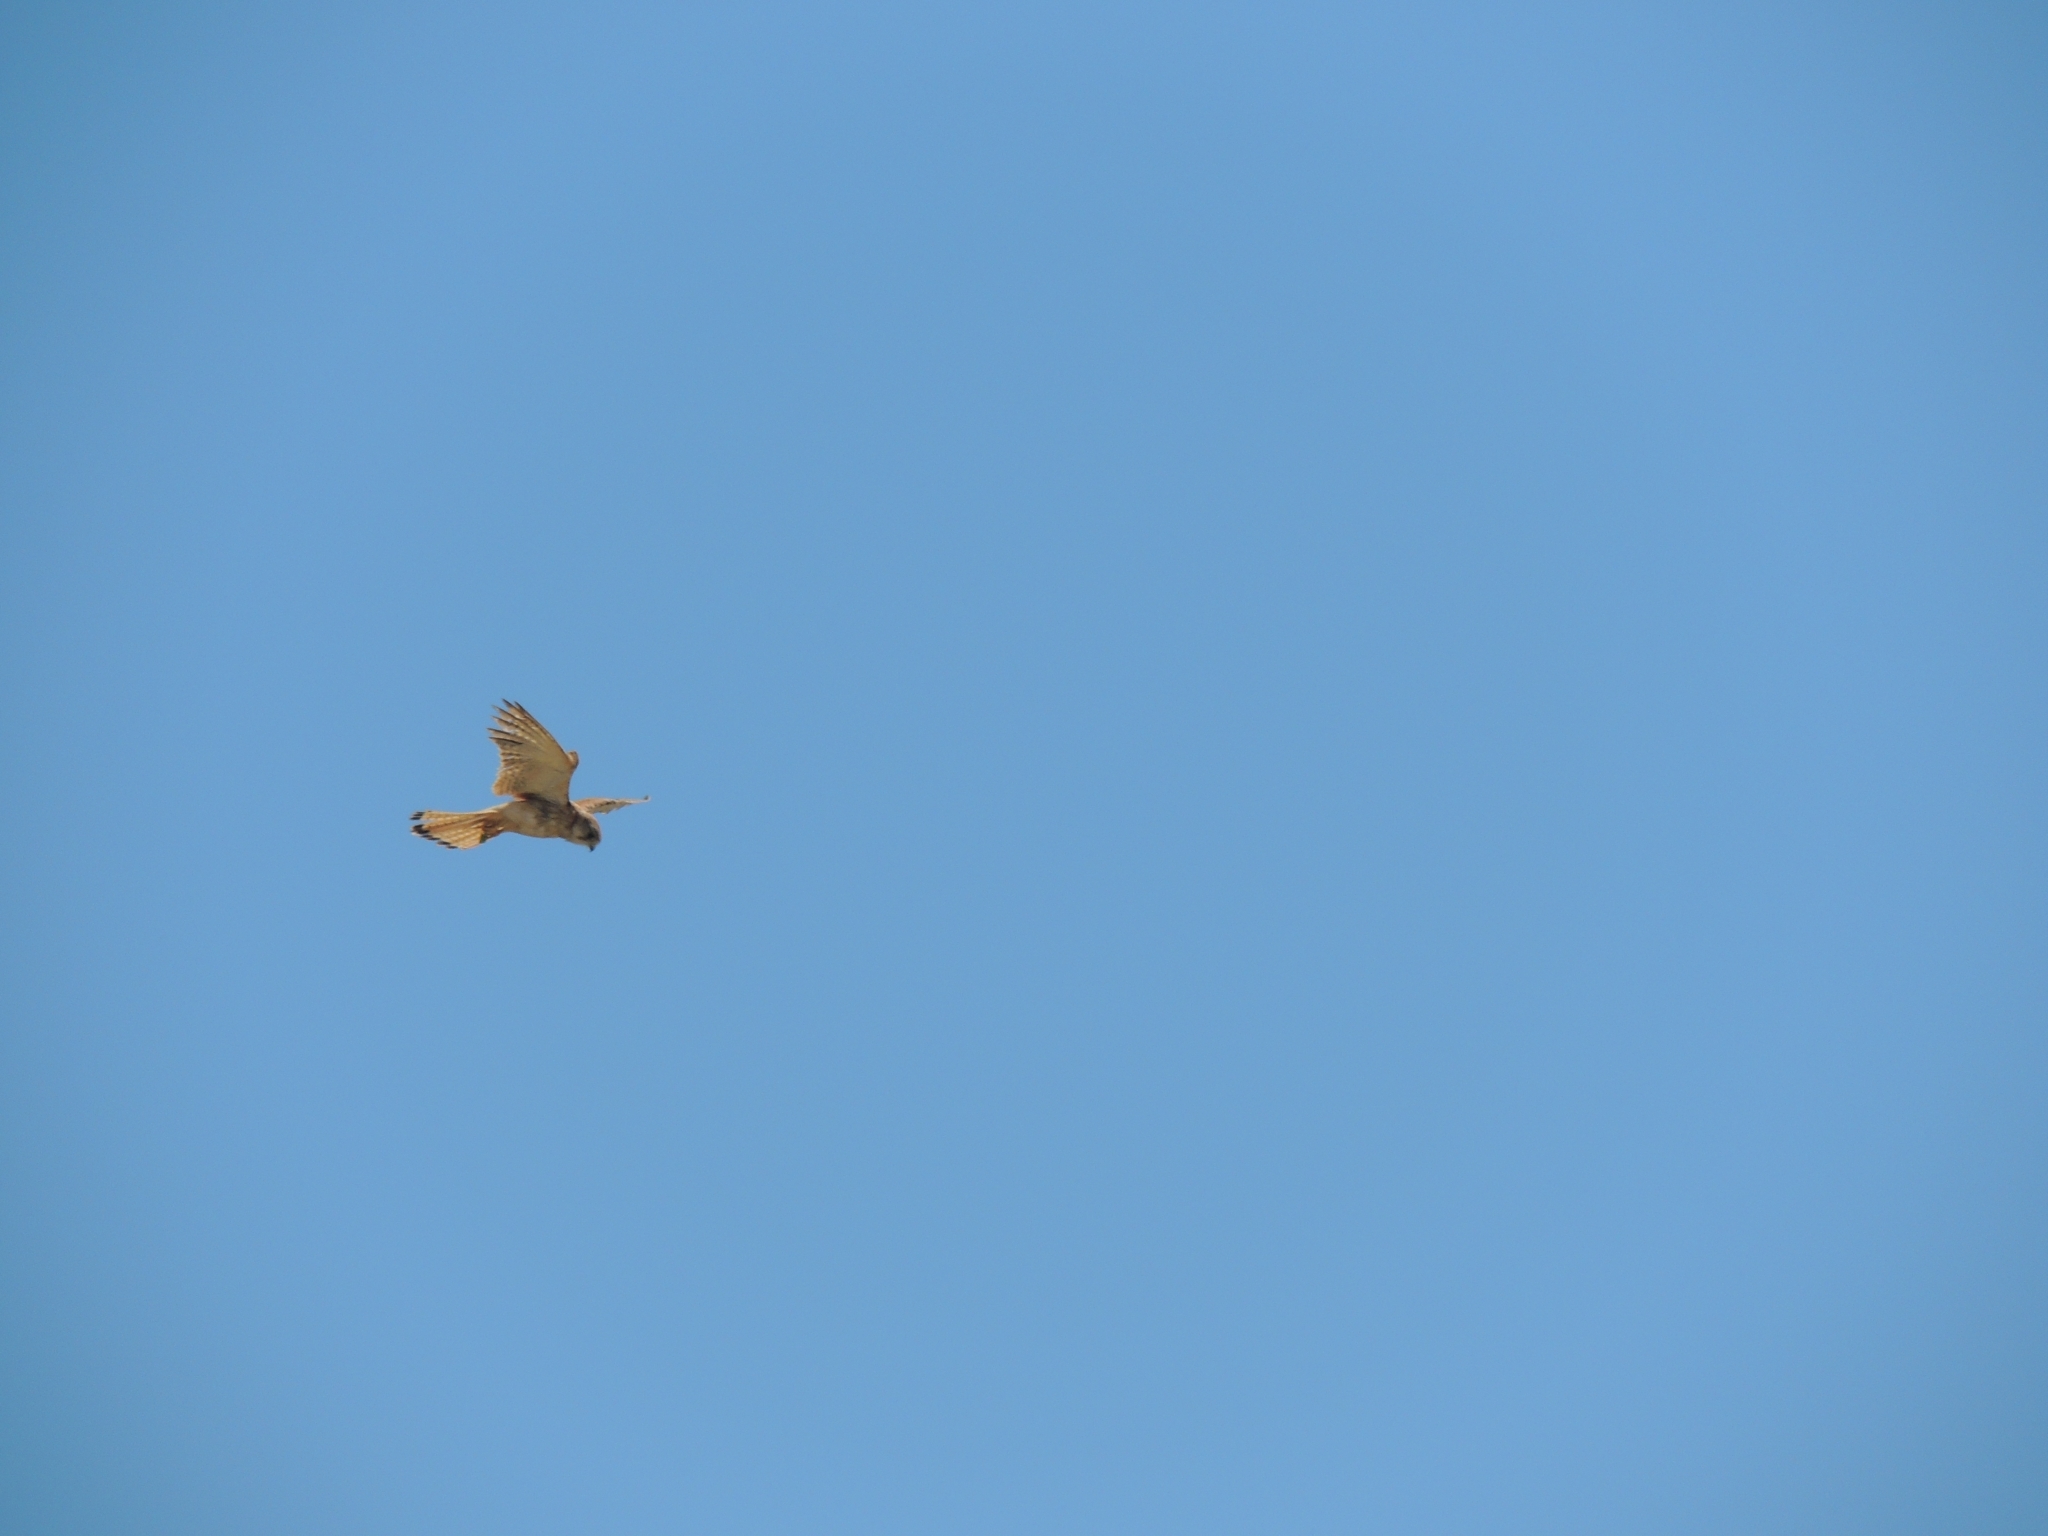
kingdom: Animalia
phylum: Chordata
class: Aves
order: Falconiformes
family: Falconidae
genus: Falco
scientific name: Falco cenchroides
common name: Nankeen kestrel
